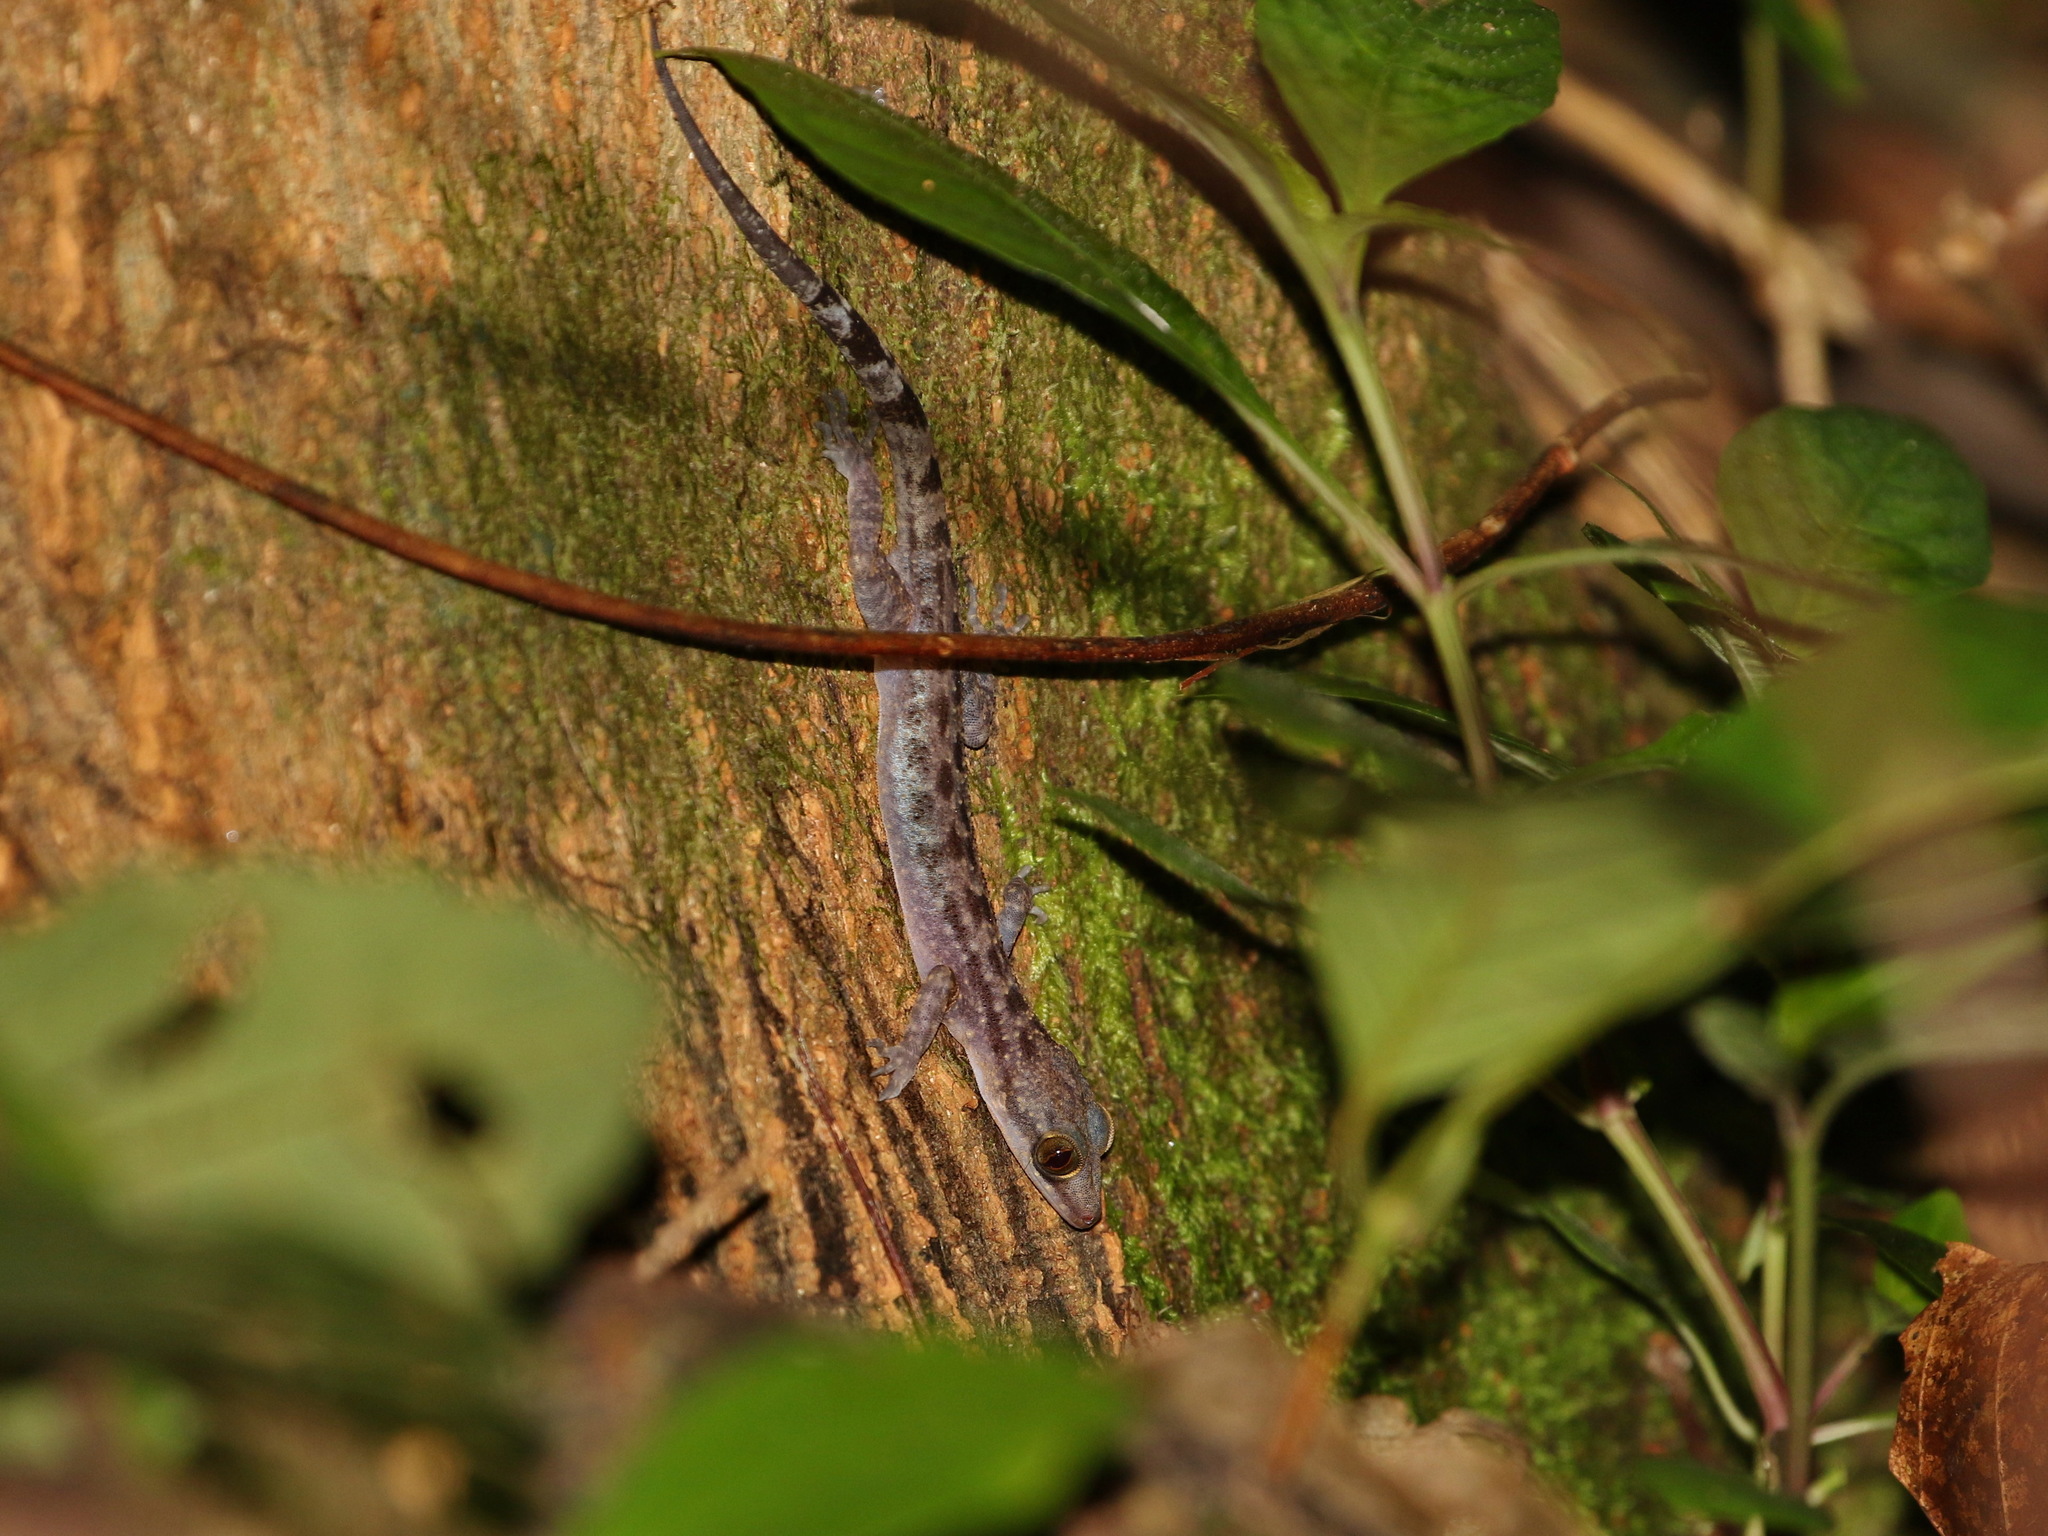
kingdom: Animalia
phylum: Chordata
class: Squamata
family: Gekkonidae
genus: Cyrtodactylus
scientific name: Cyrtodactylus ranongensis
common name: Ranong bent-toed gecko
